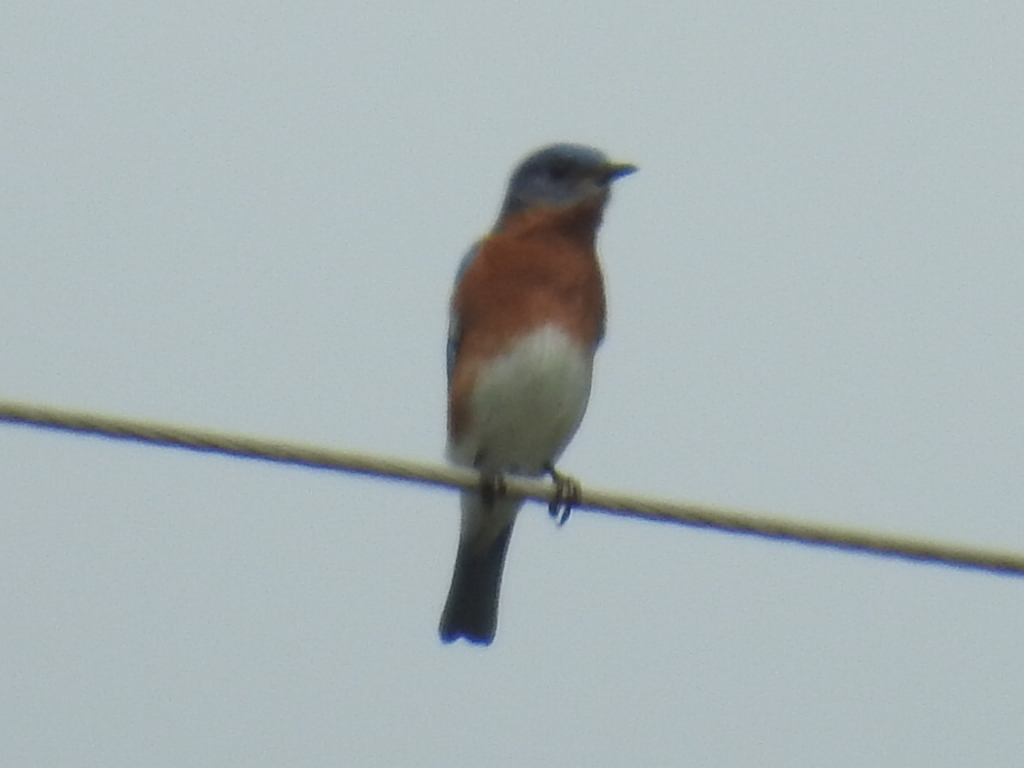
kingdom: Animalia
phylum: Chordata
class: Aves
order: Passeriformes
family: Turdidae
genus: Sialia
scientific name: Sialia sialis
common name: Eastern bluebird
